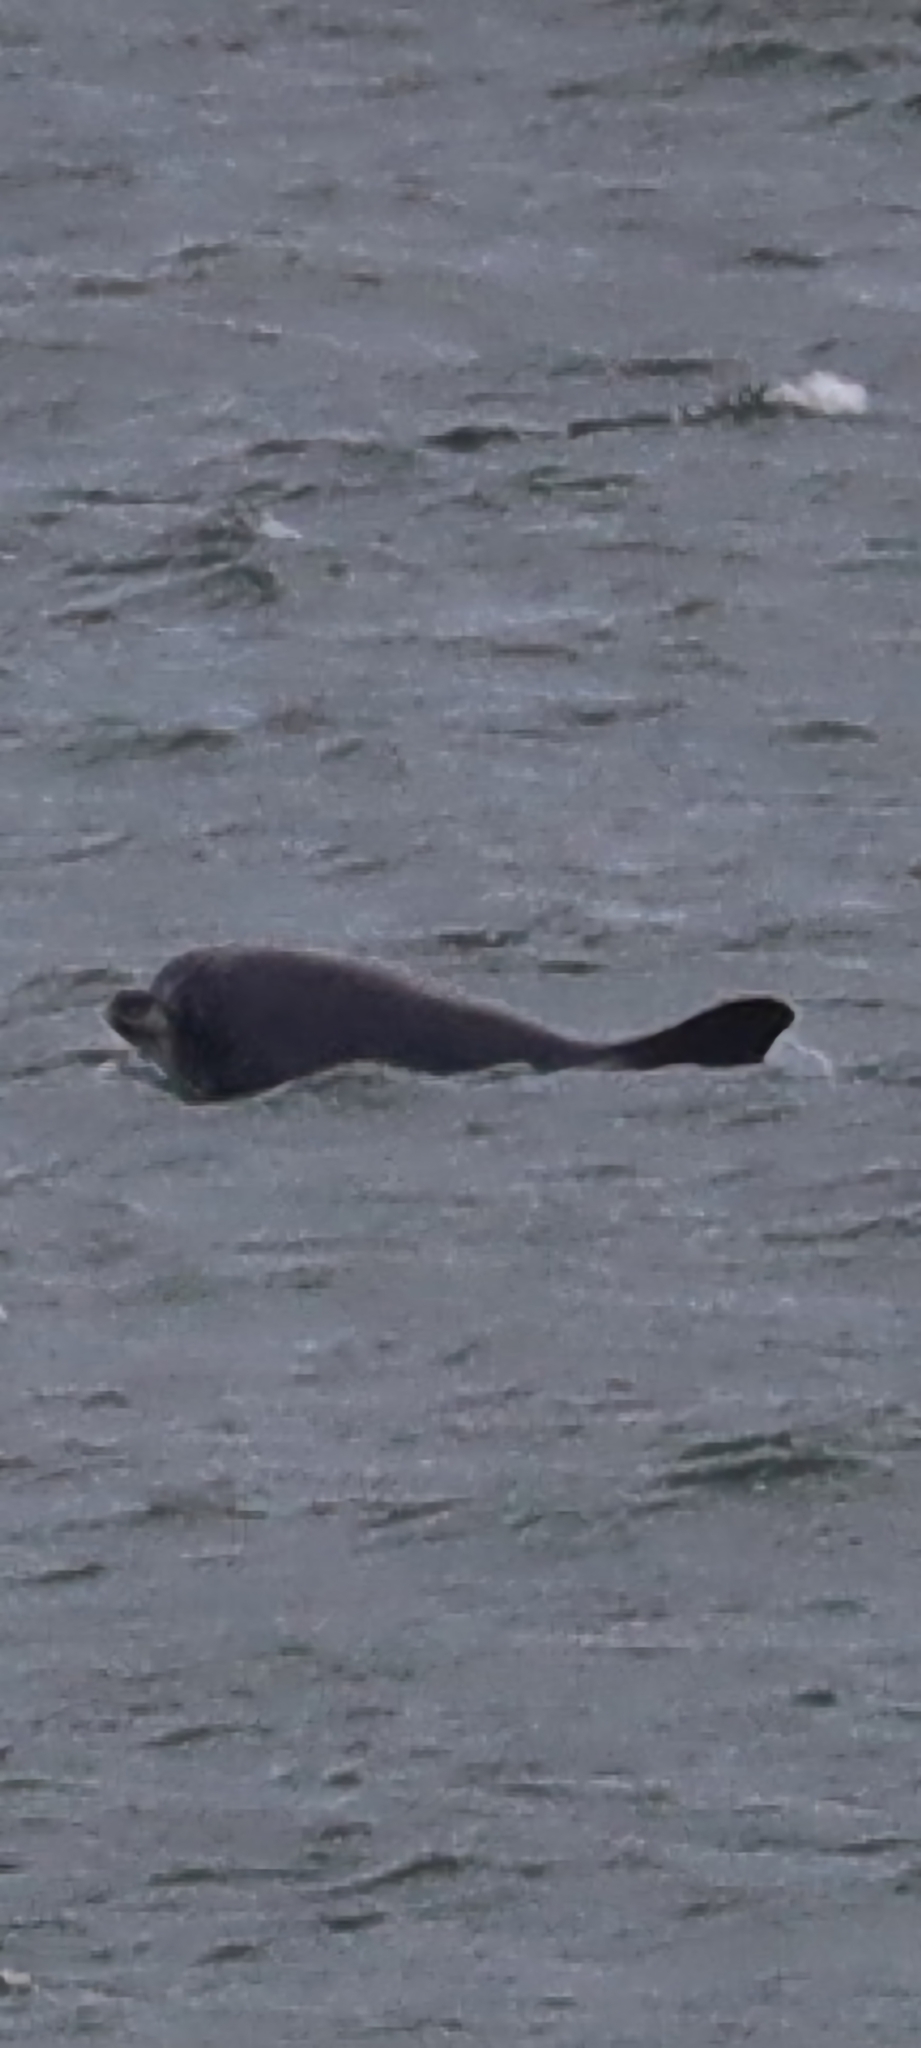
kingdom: Animalia
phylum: Chordata
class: Mammalia
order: Cetacea
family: Delphinidae
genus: Tursiops
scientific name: Tursiops truncatus
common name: Bottlenose dolphin
